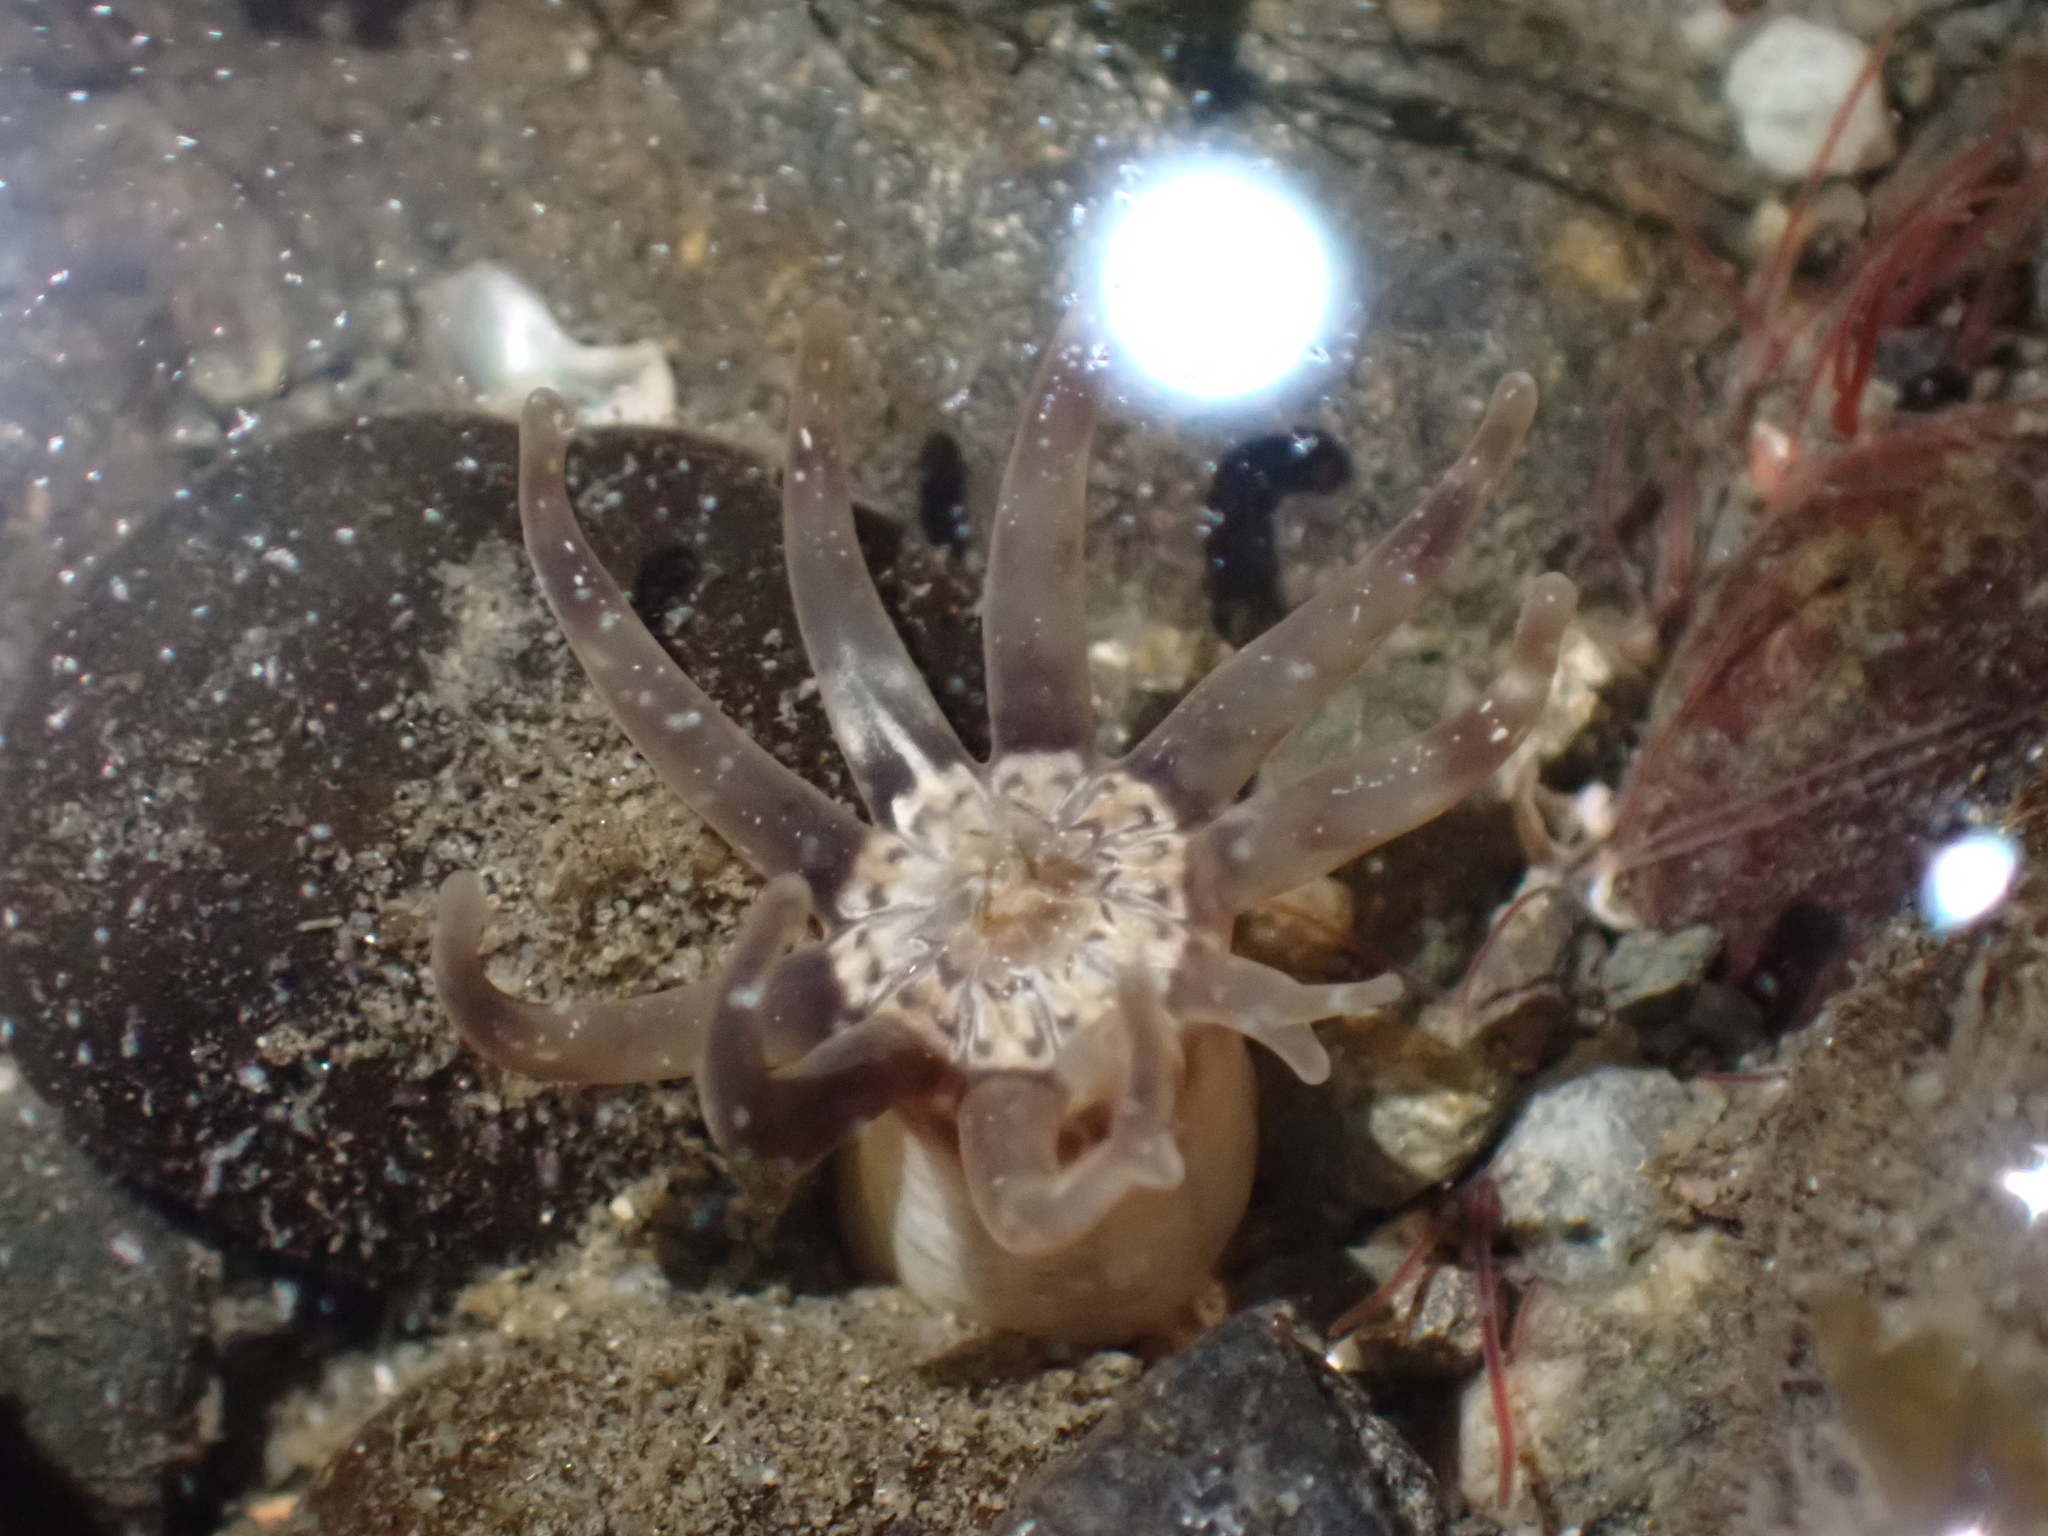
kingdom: Animalia
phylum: Cnidaria
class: Anthozoa
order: Actiniaria
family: Halcampidae
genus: Halcampa
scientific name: Halcampa decemtentaculata
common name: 10-tentacle burrowing anemone
